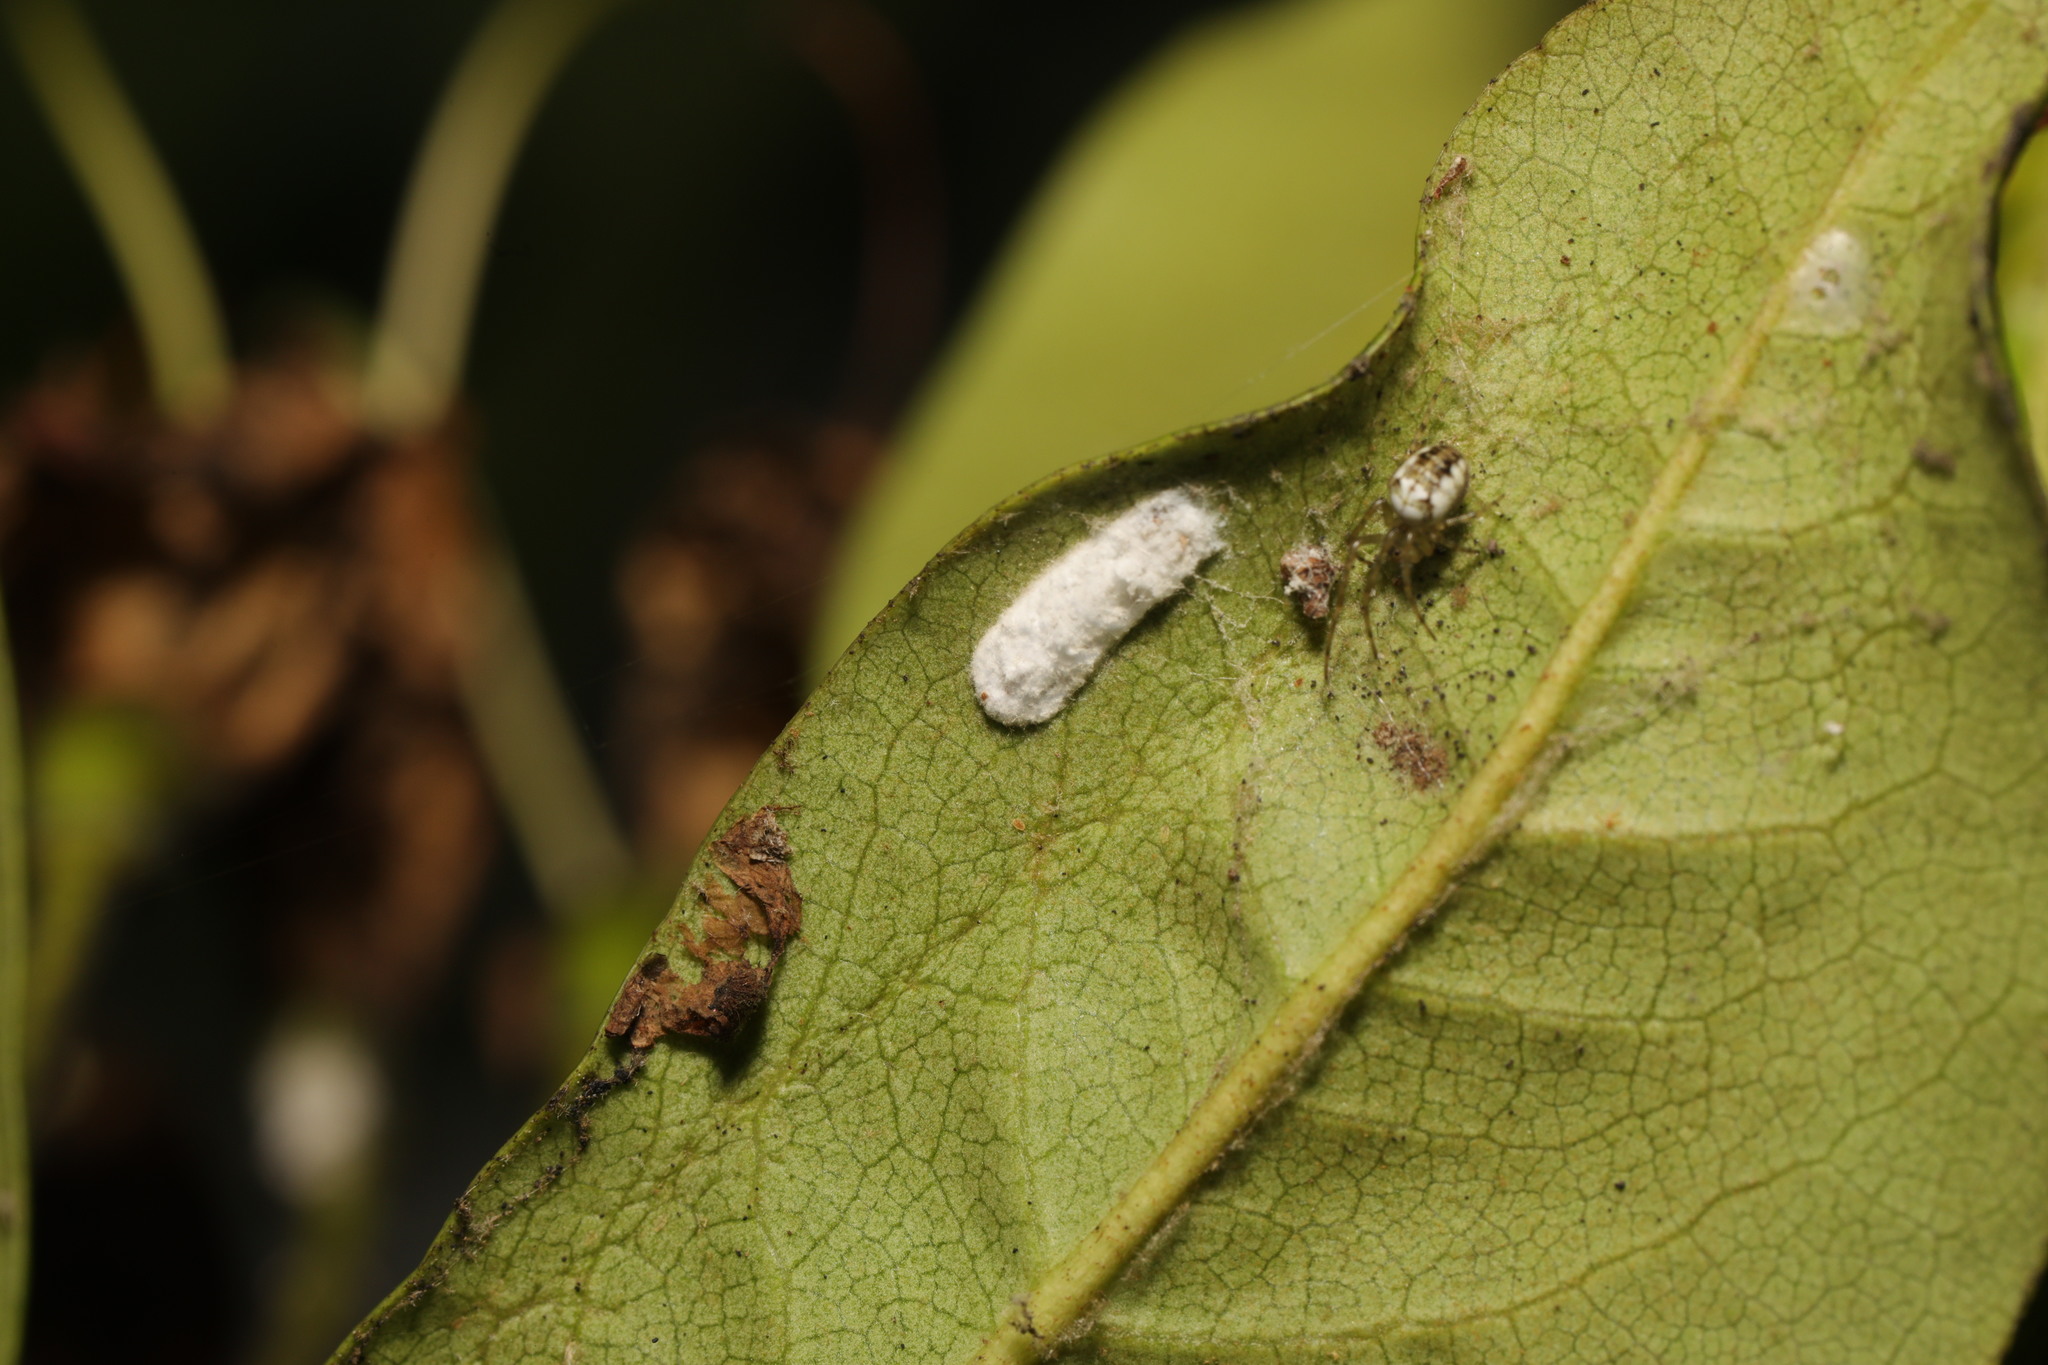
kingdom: Animalia
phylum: Arthropoda
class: Insecta
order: Hemiptera
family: Coccidae
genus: Pulvinaria
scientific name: Pulvinaria floccifera
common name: Cottony camellia scale
